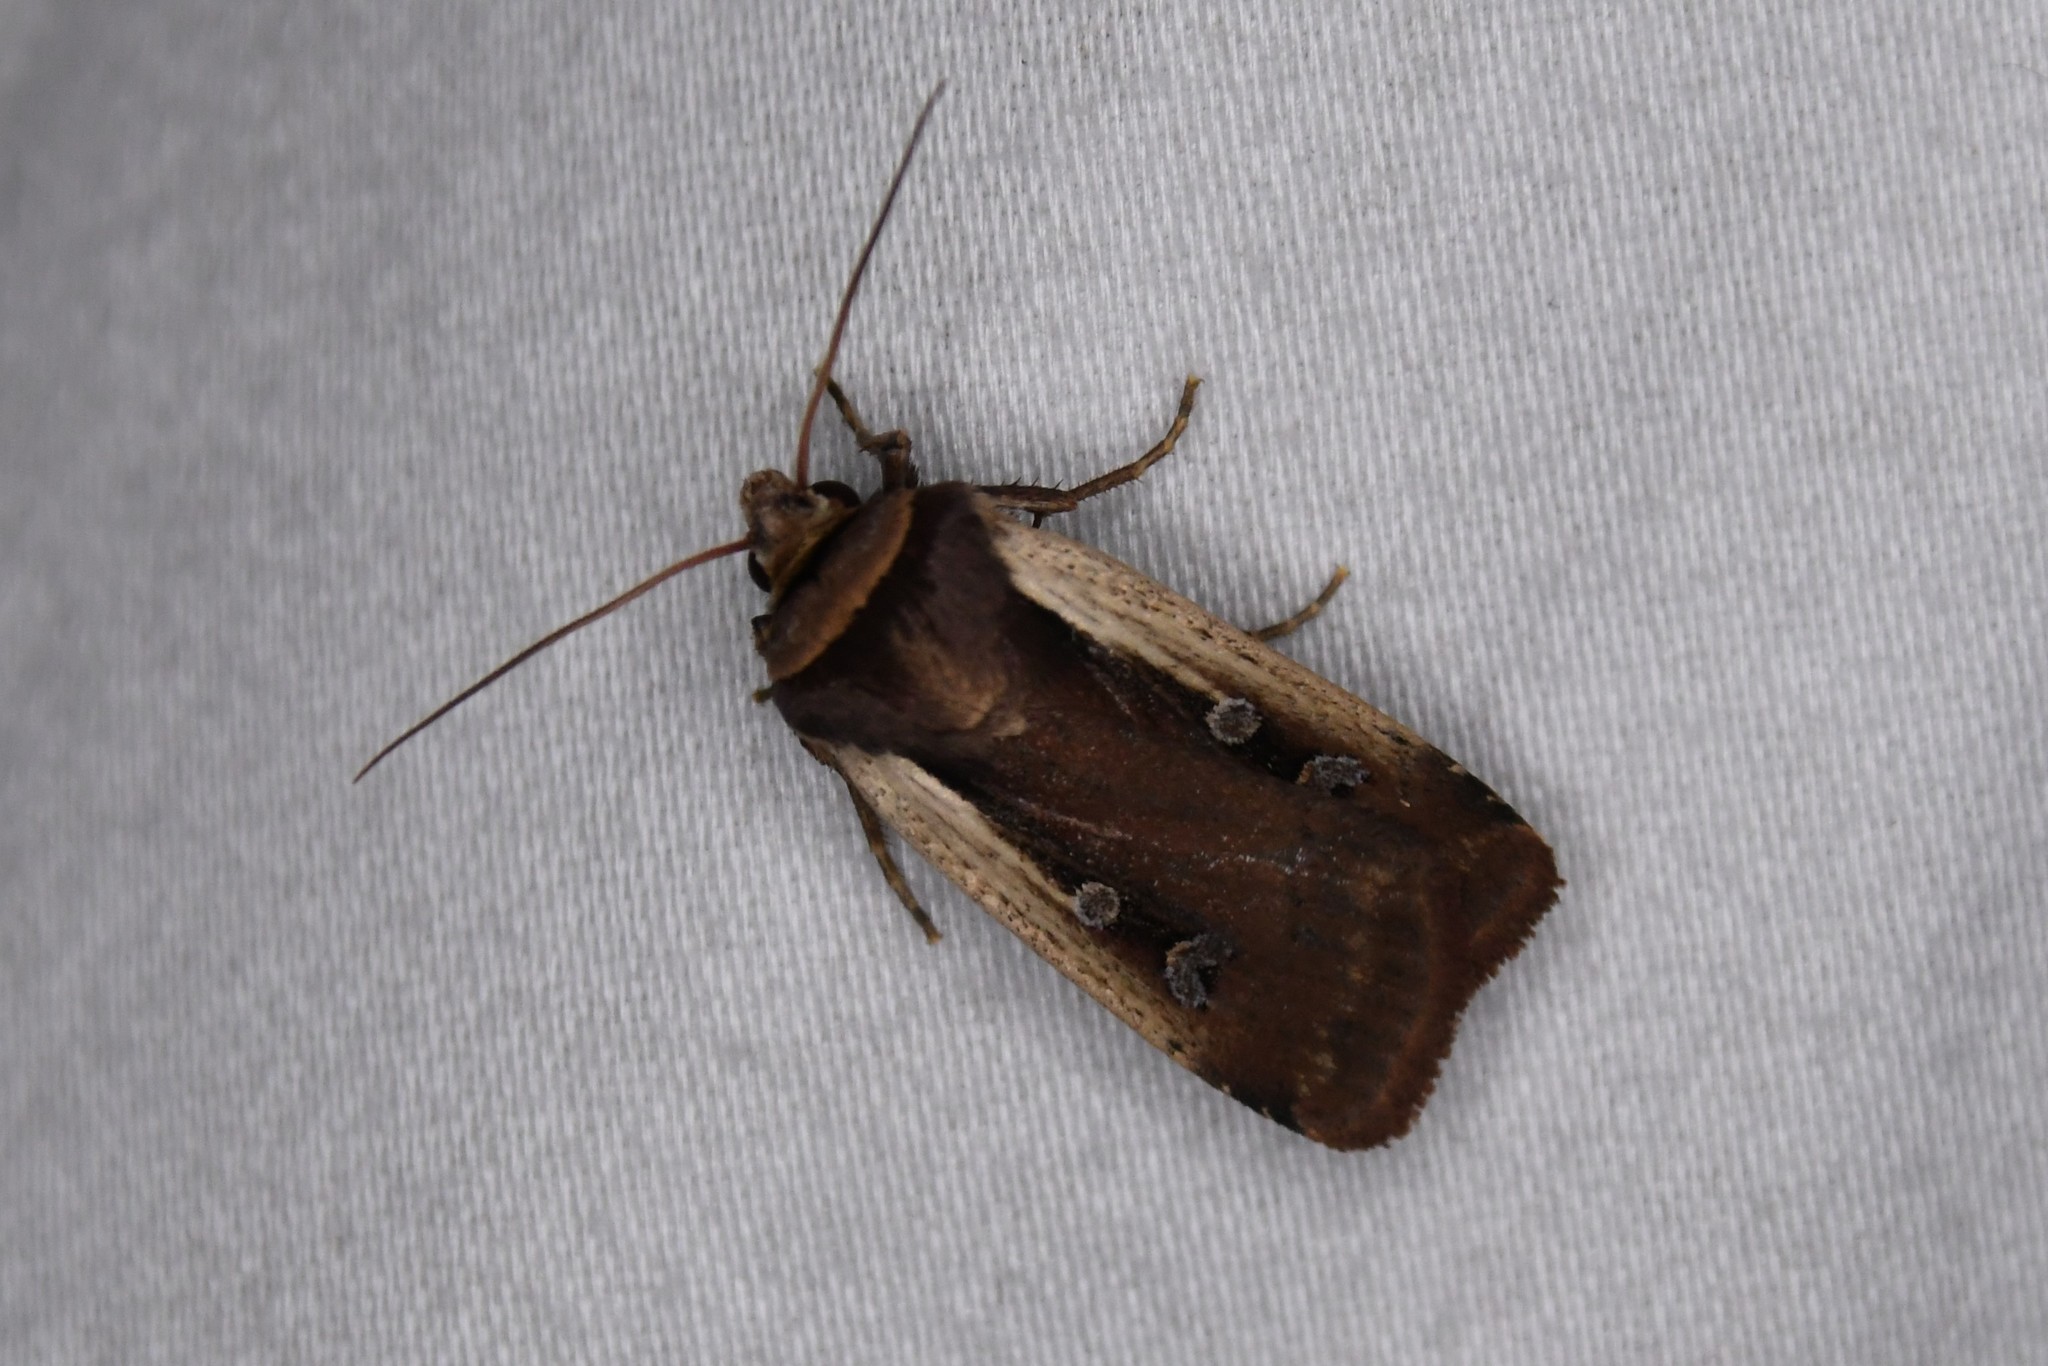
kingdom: Animalia
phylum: Arthropoda
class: Insecta
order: Lepidoptera
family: Noctuidae
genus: Ochropleura
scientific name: Ochropleura implecta
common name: Flame-shouldered dart
